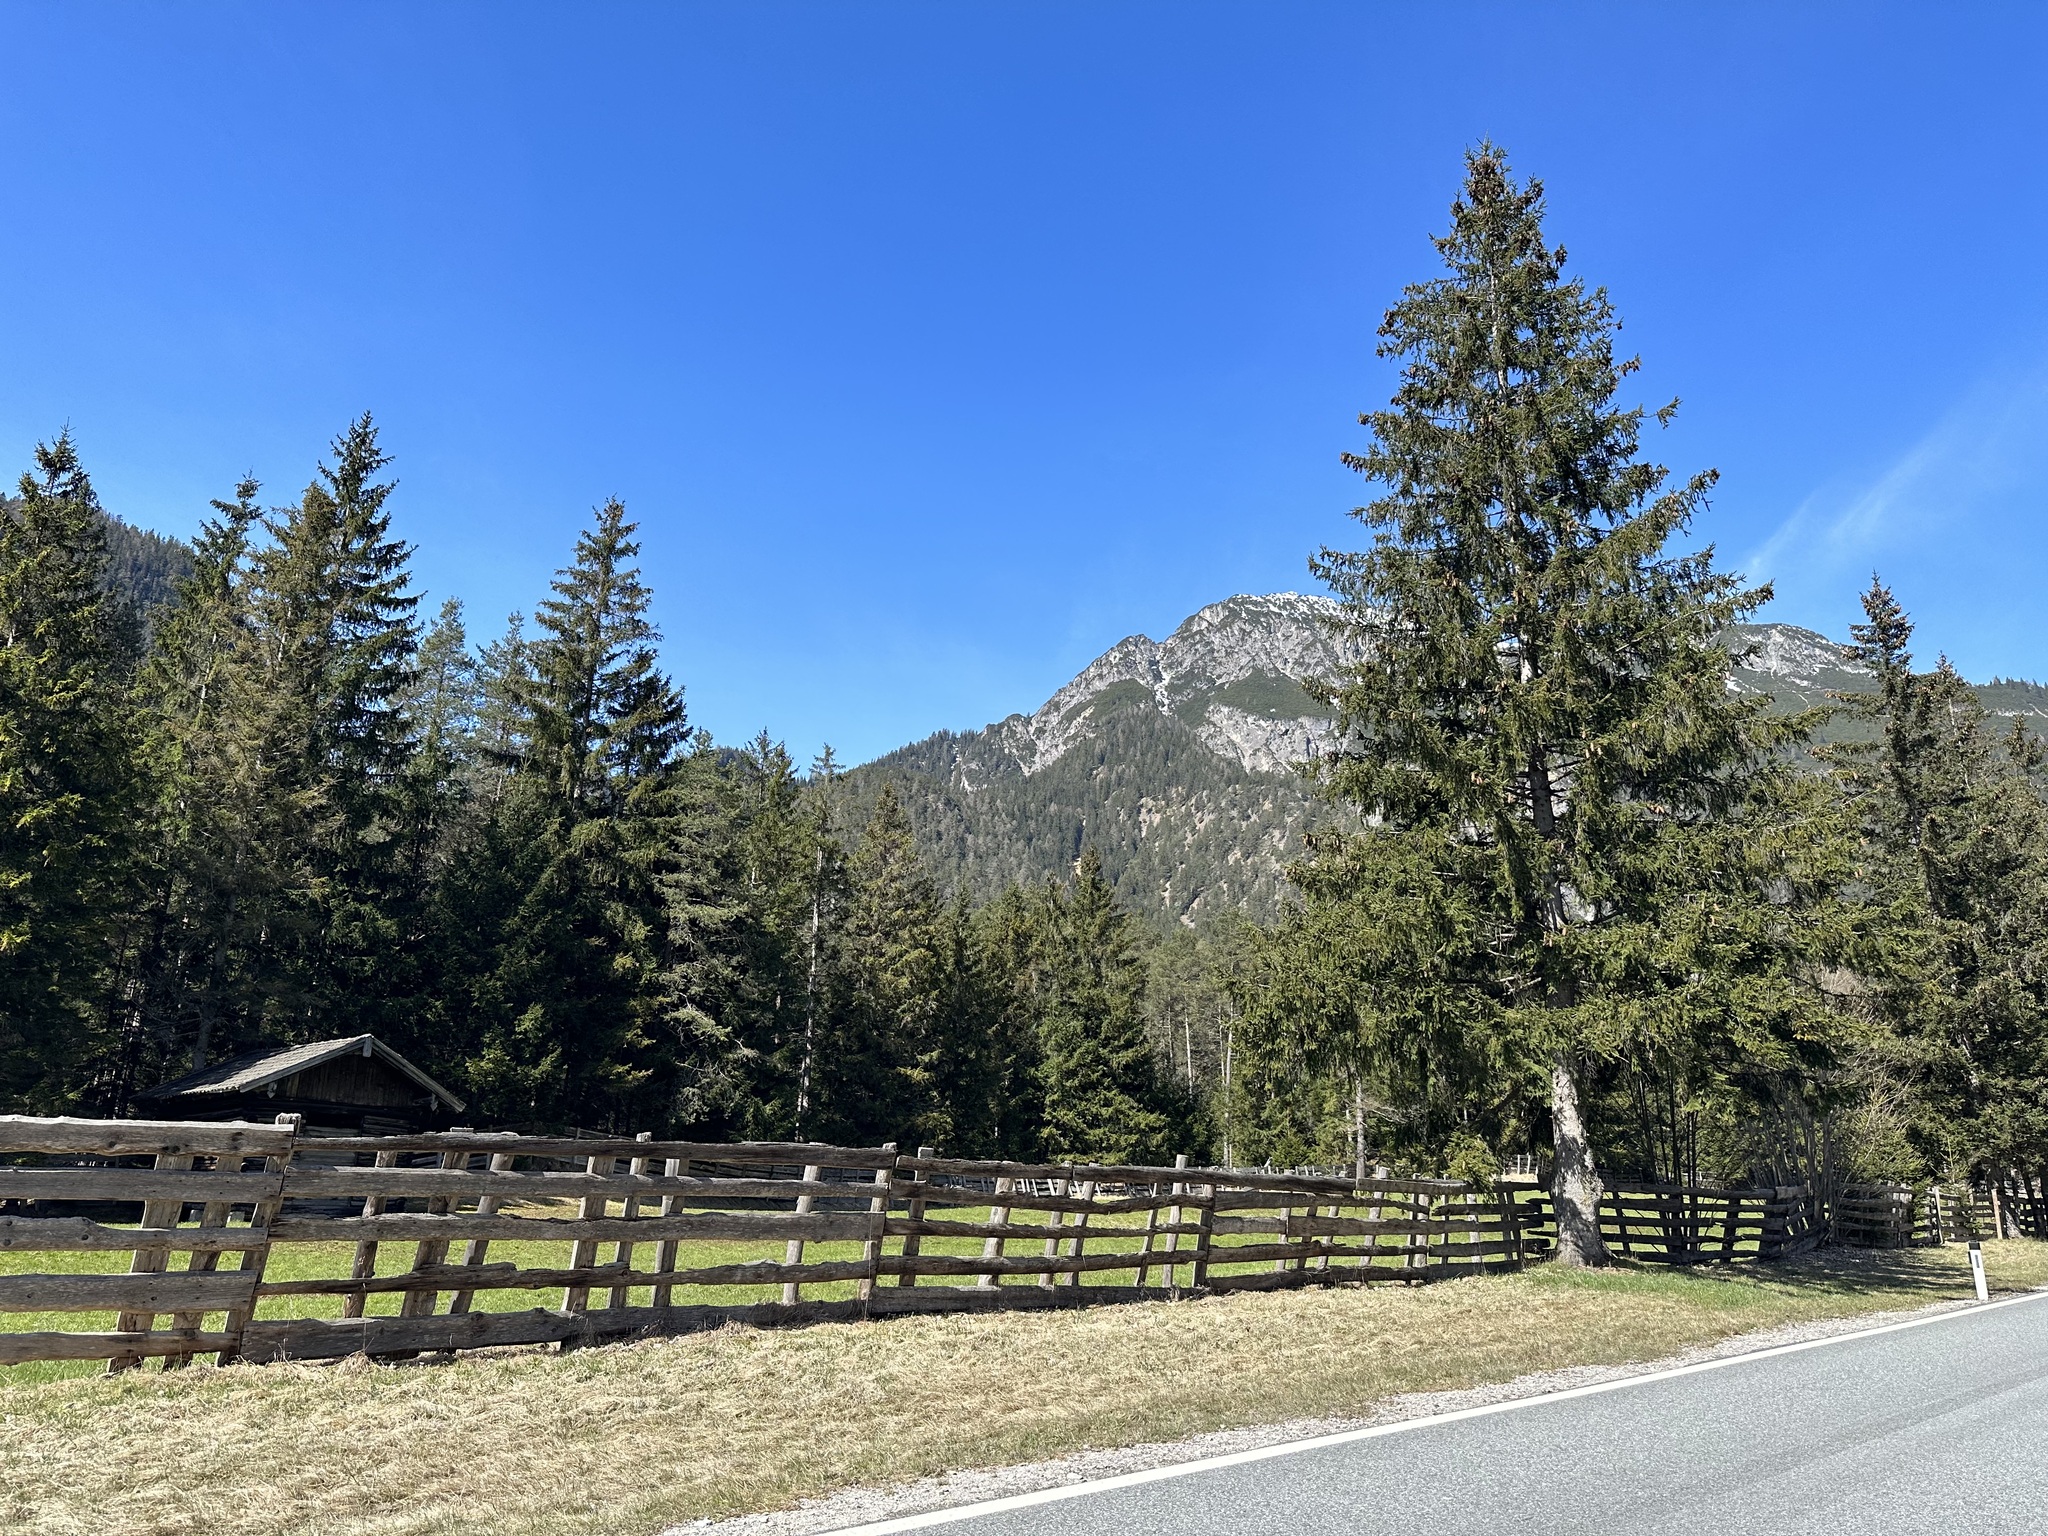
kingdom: Plantae
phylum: Tracheophyta
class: Pinopsida
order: Pinales
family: Pinaceae
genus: Picea
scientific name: Picea abies
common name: Norway spruce
